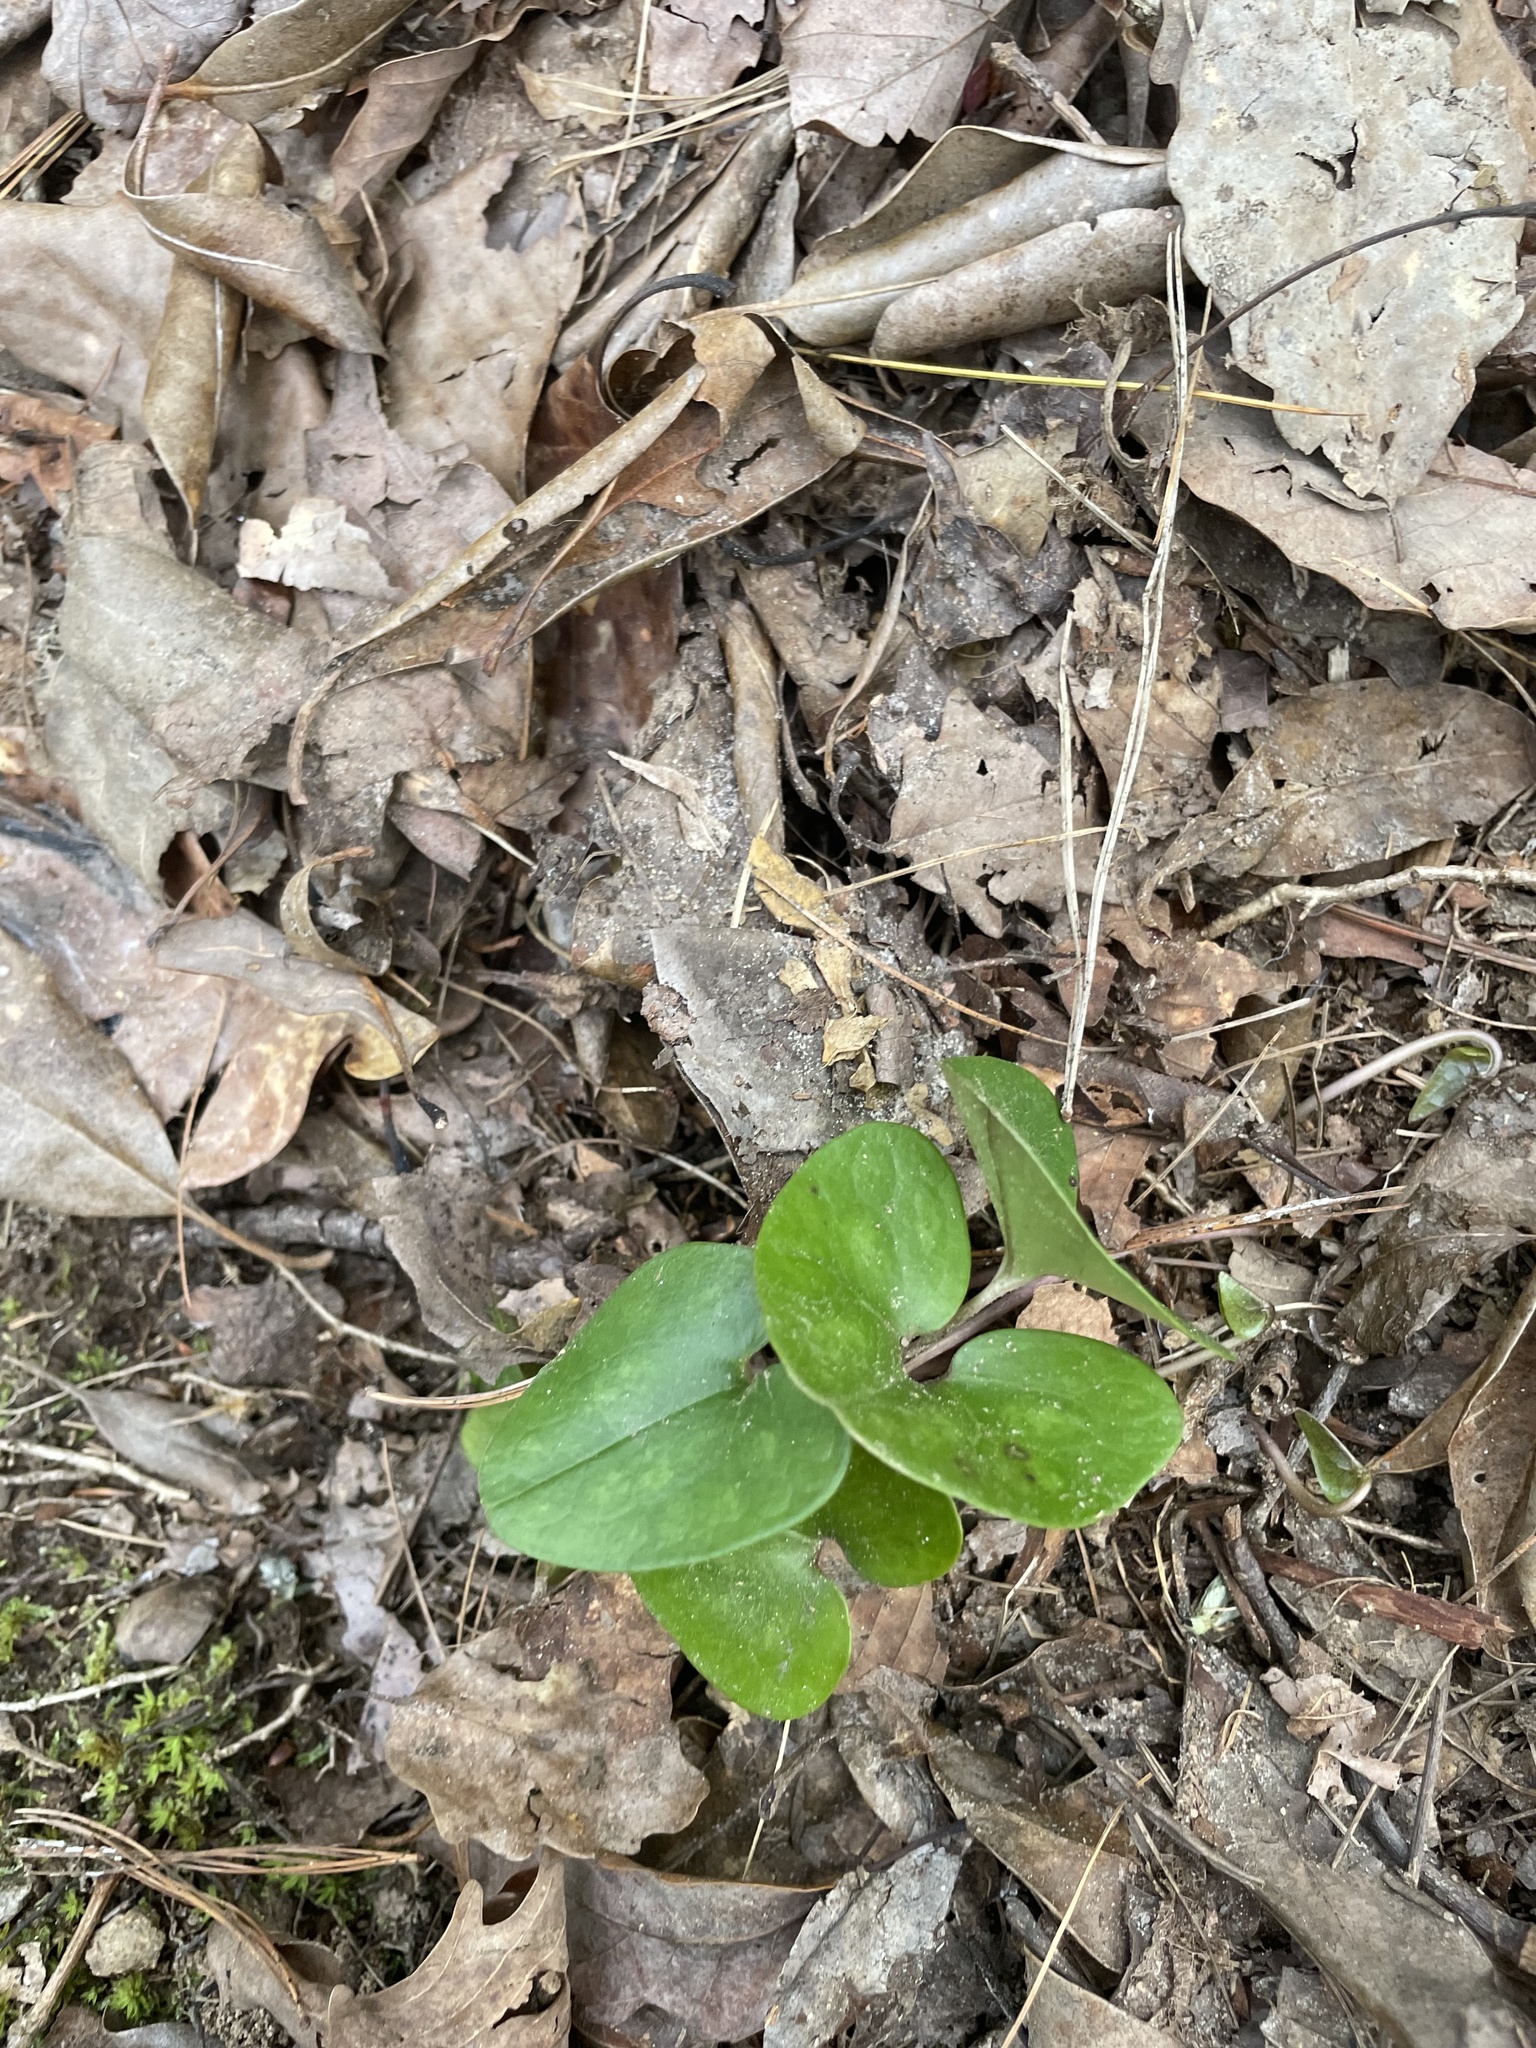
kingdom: Plantae
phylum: Tracheophyta
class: Magnoliopsida
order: Piperales
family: Aristolochiaceae
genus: Hexastylis
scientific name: Hexastylis arifolia
